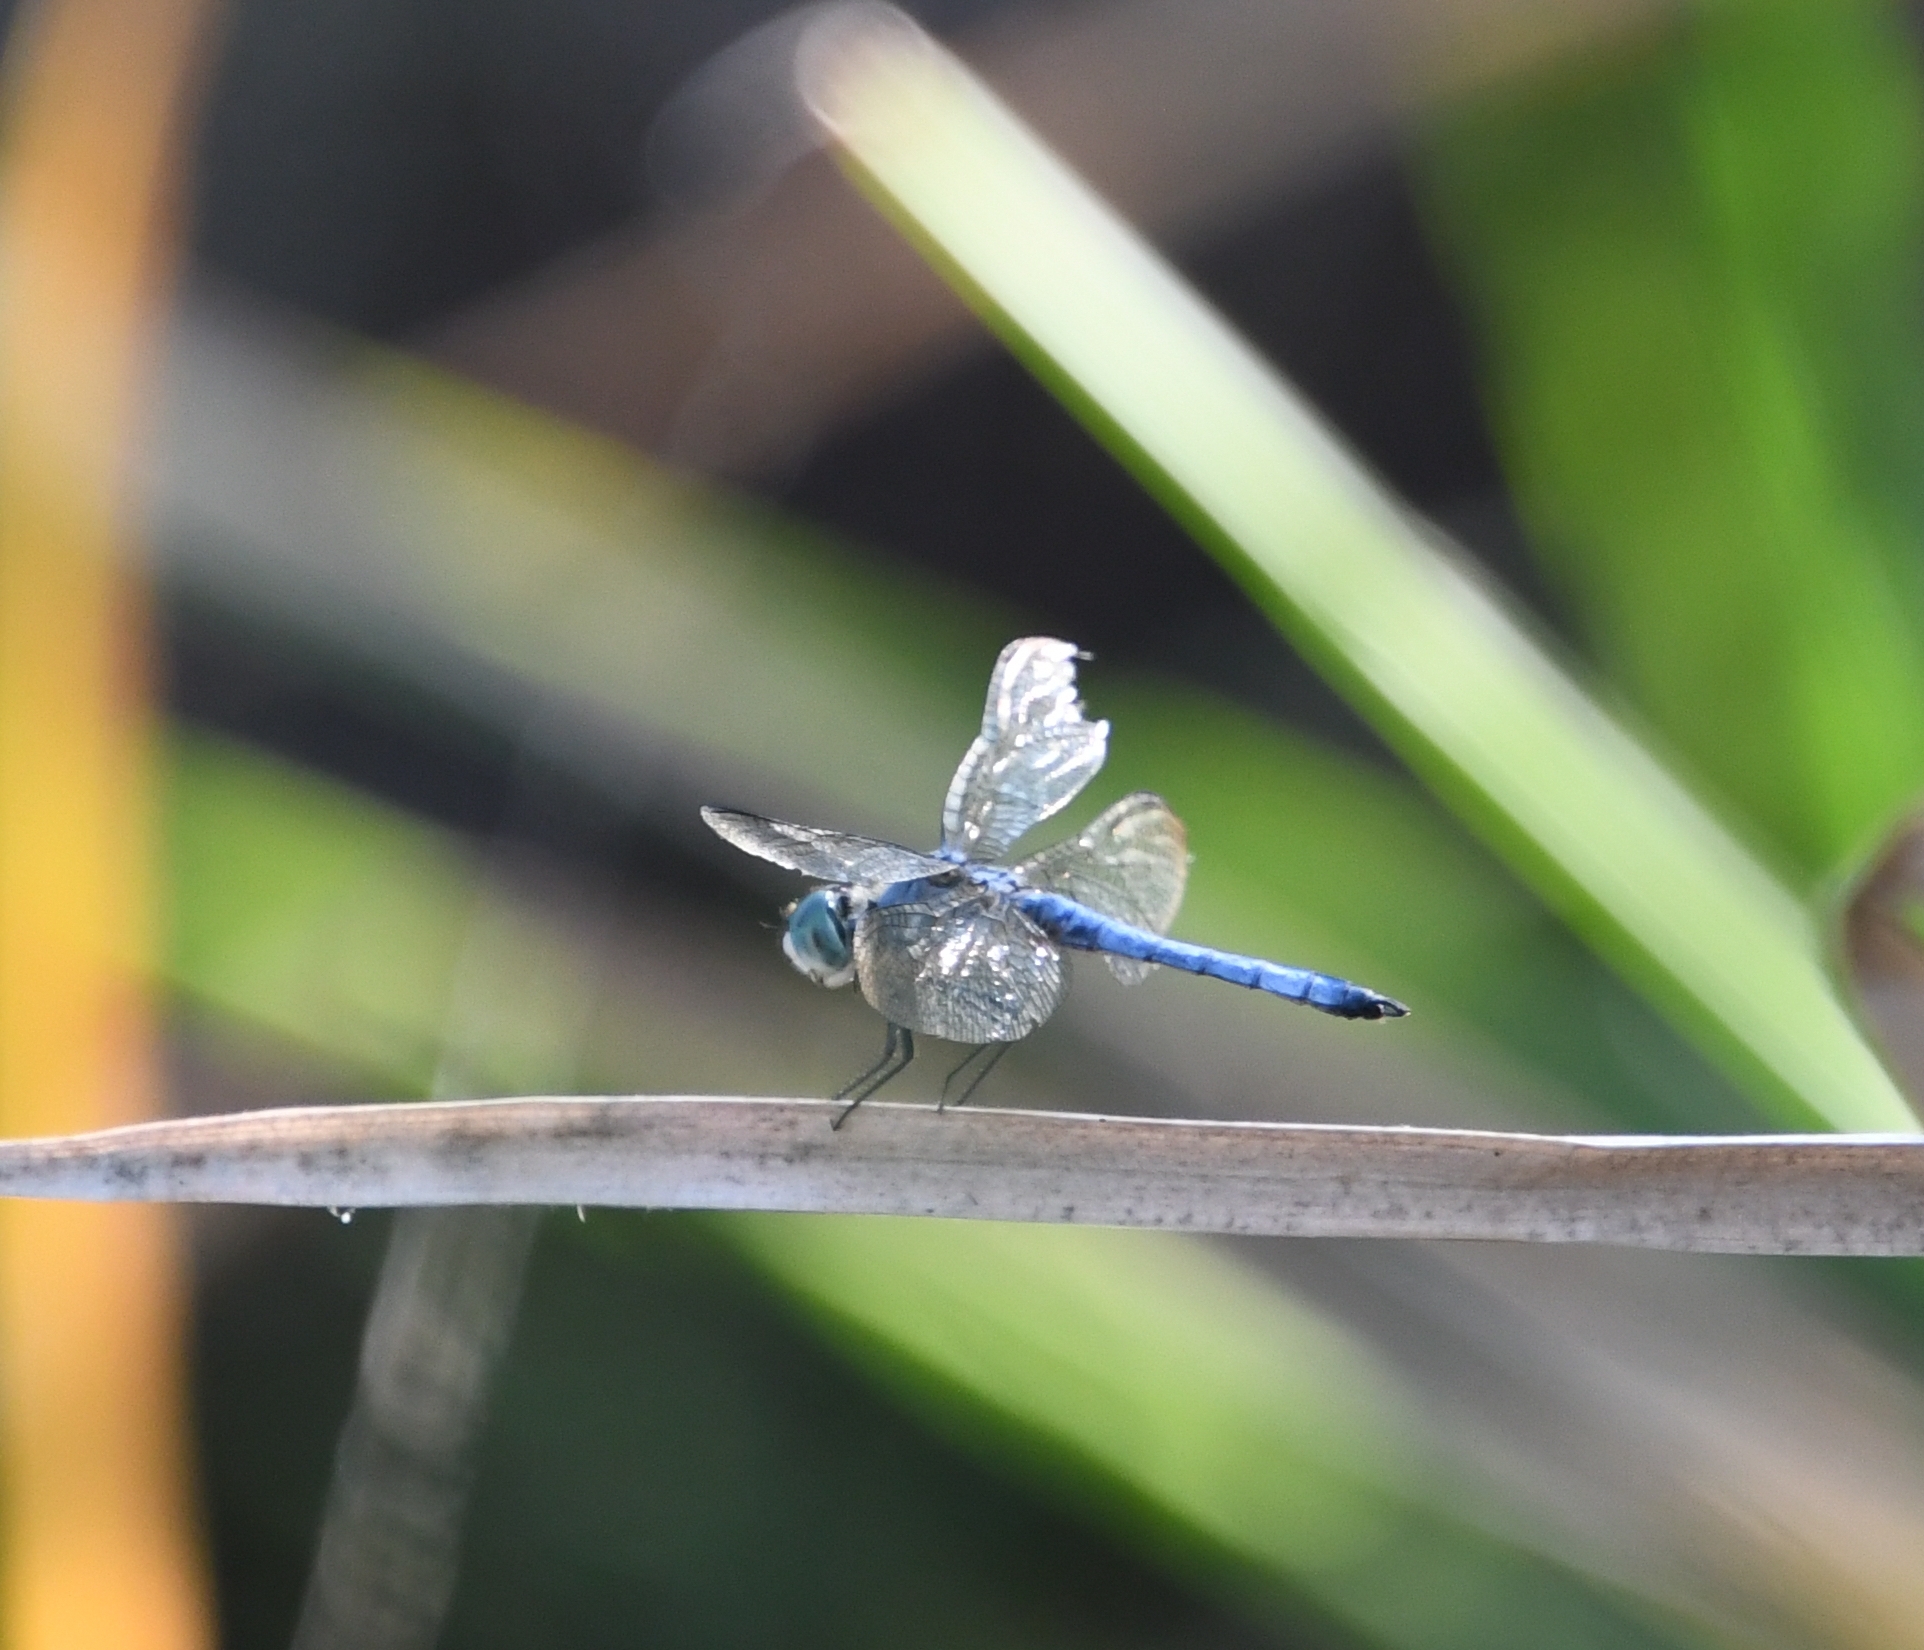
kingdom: Animalia
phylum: Arthropoda
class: Insecta
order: Odonata
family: Libellulidae
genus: Pachydiplax
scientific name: Pachydiplax longipennis
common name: Blue dasher
